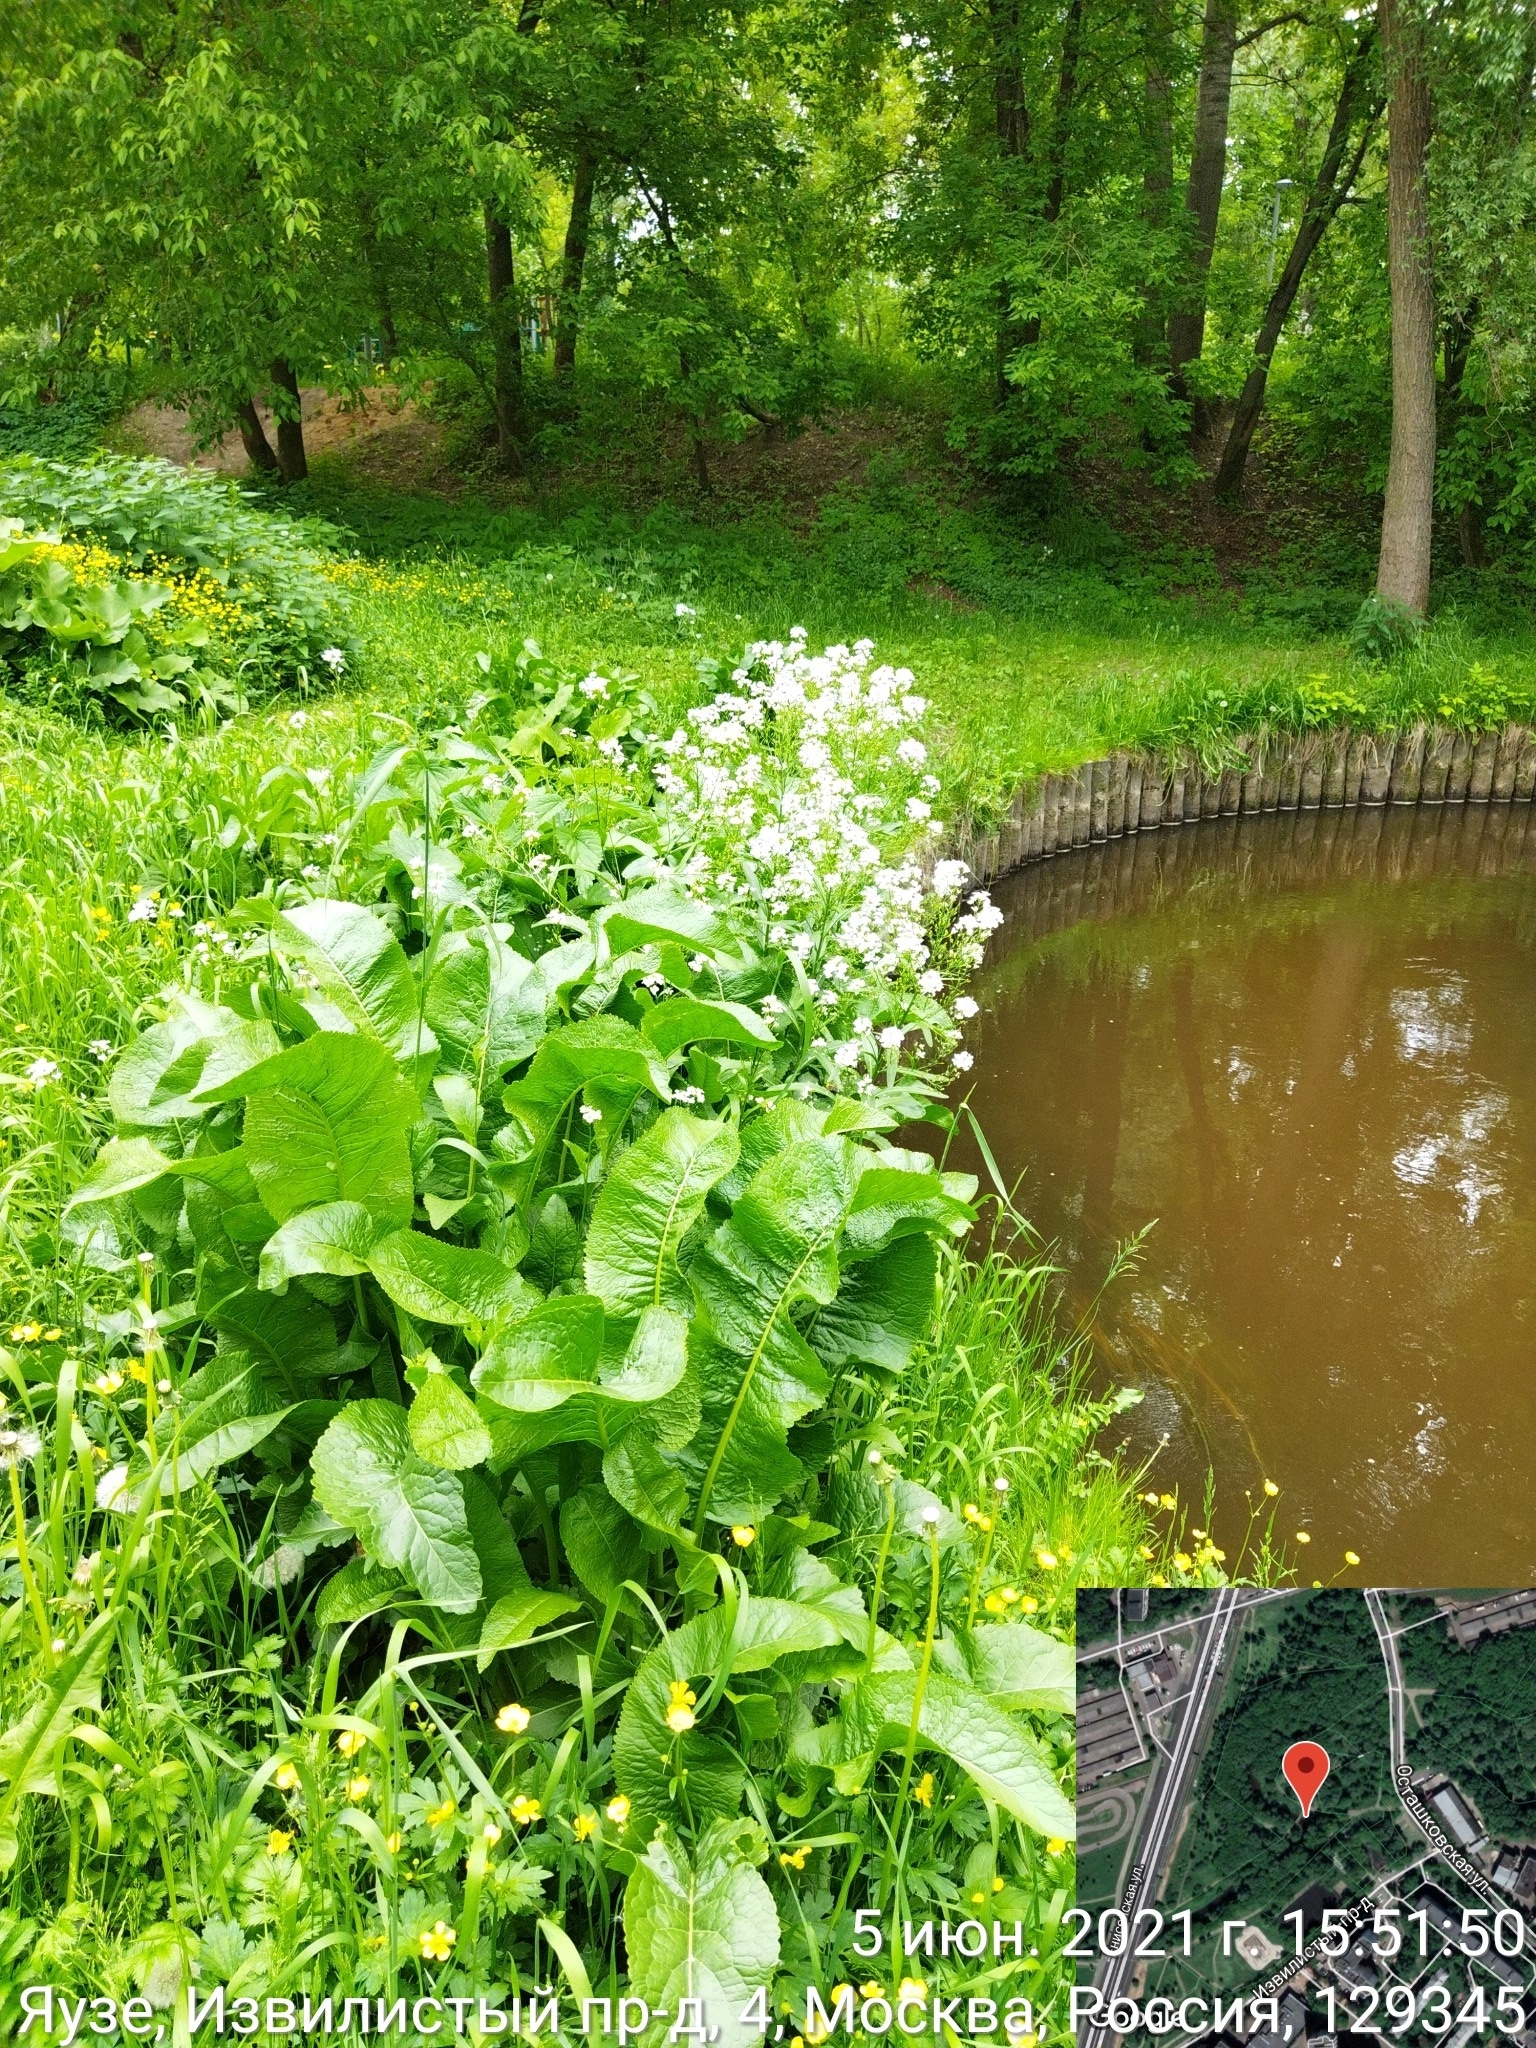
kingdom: Plantae
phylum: Tracheophyta
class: Magnoliopsida
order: Brassicales
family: Brassicaceae
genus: Armoracia
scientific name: Armoracia rusticana
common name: Horseradish
